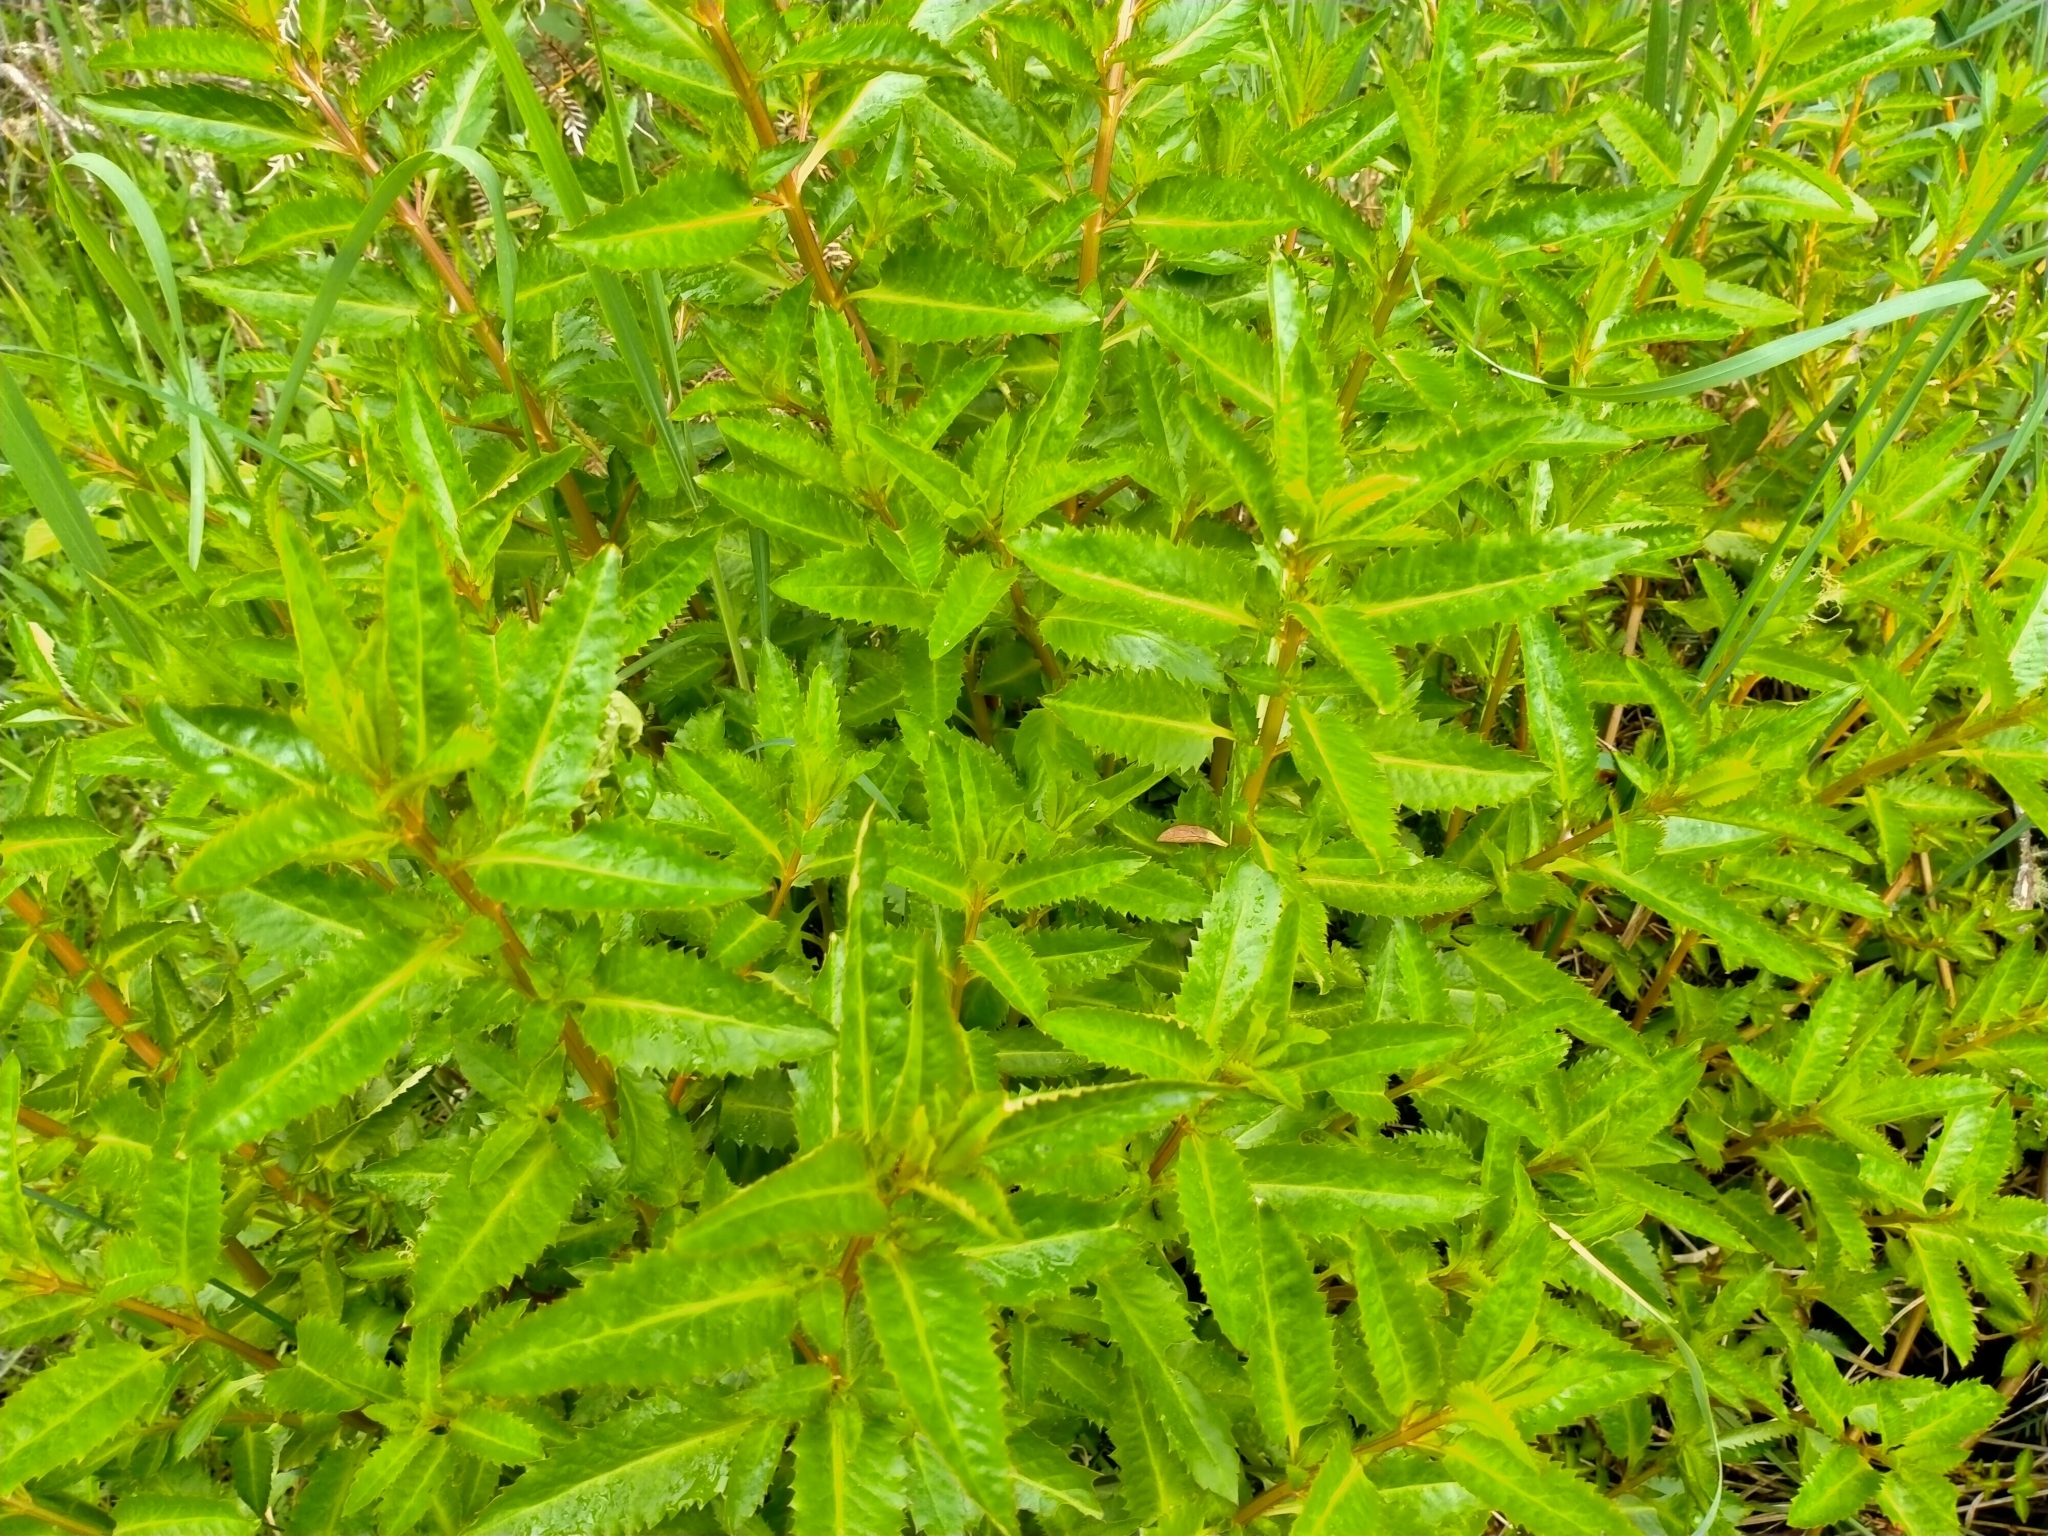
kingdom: Plantae
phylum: Tracheophyta
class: Magnoliopsida
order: Saxifragales
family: Haloragaceae
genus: Haloragis
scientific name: Haloragis erecta
